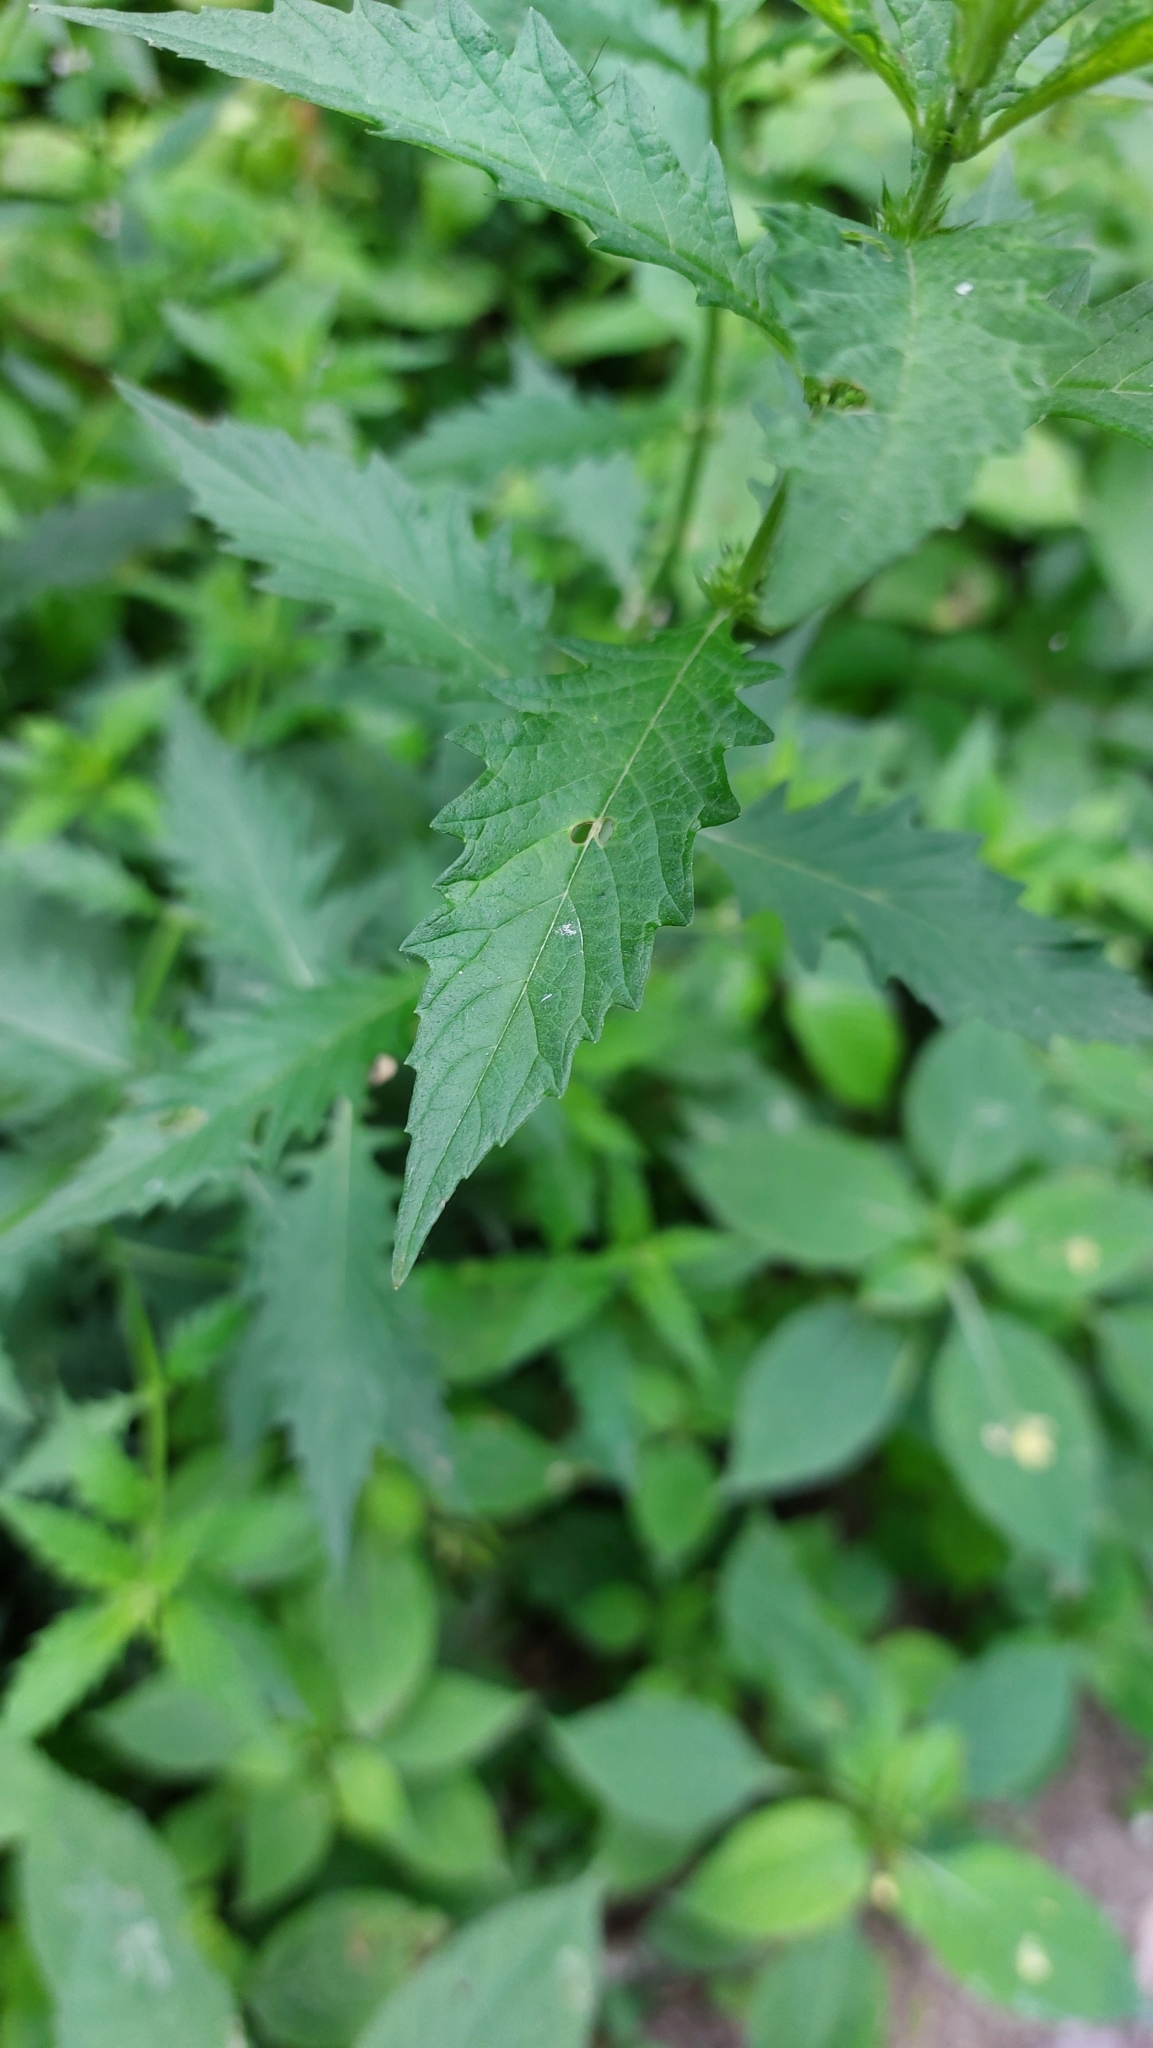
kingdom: Plantae
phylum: Tracheophyta
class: Magnoliopsida
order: Lamiales
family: Lamiaceae
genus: Lycopus
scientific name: Lycopus europaeus
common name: European bugleweed
